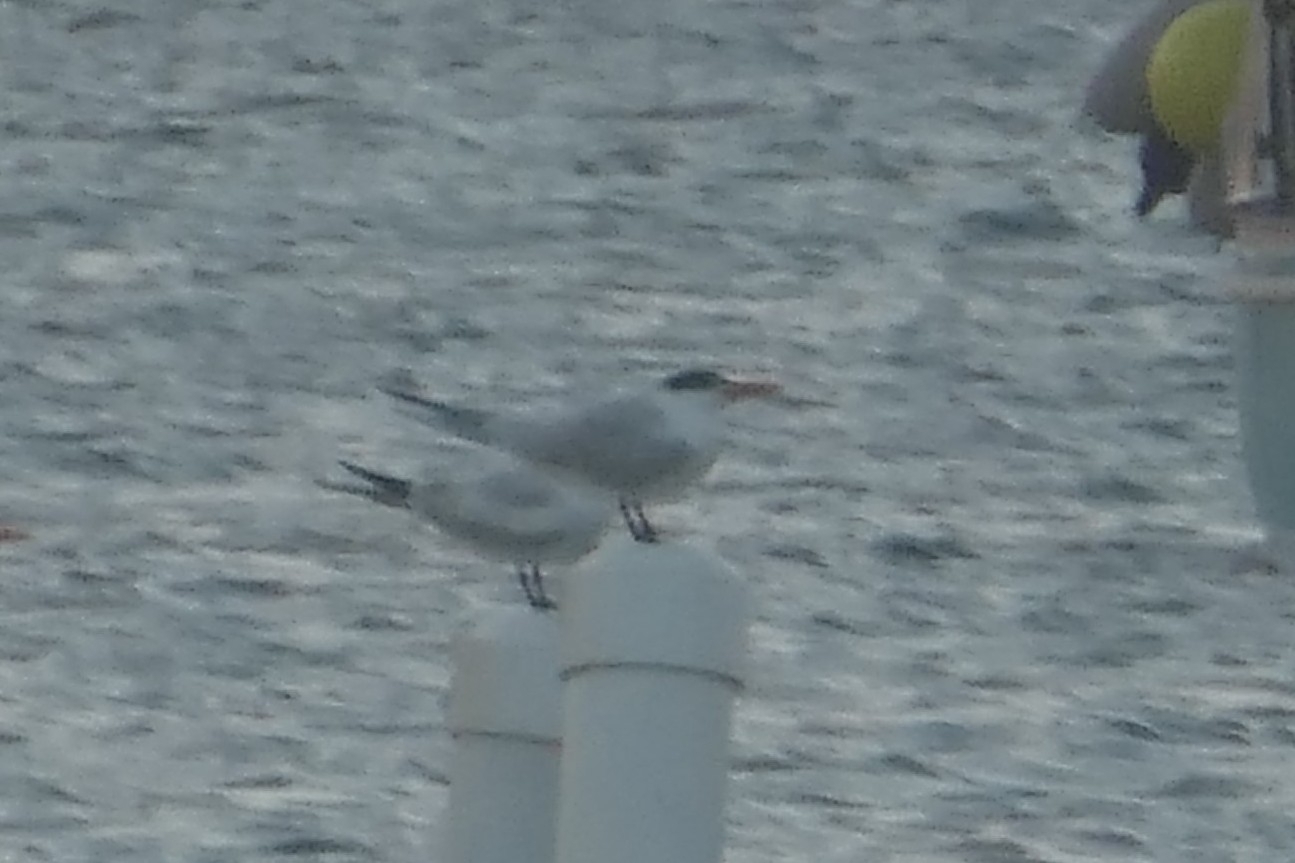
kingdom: Animalia
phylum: Chordata
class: Aves
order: Charadriiformes
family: Laridae
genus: Thalasseus
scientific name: Thalasseus maximus
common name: Royal tern
